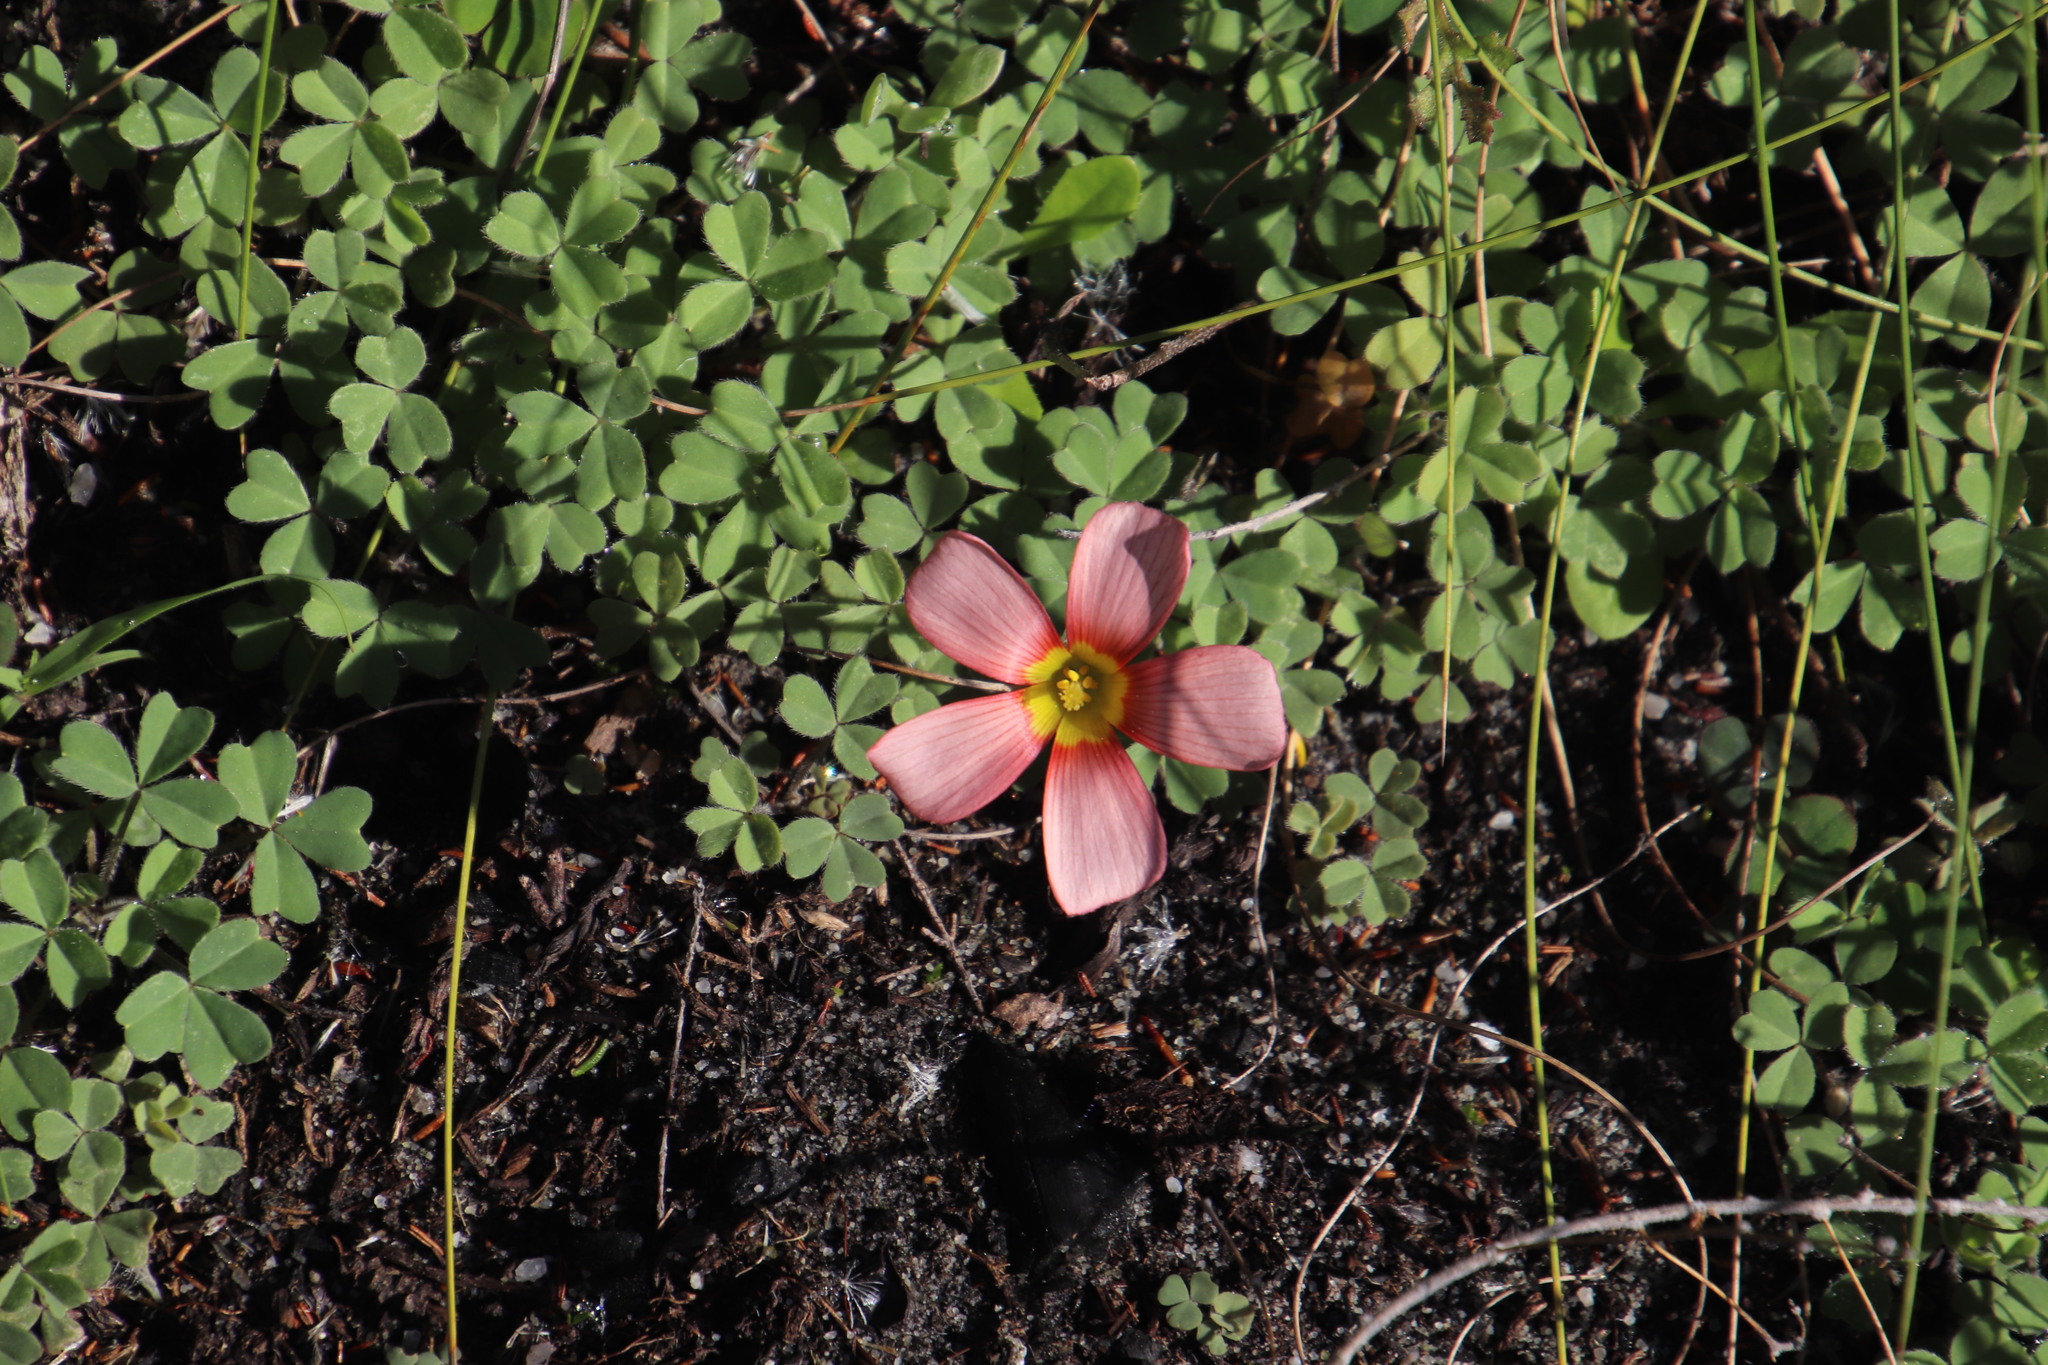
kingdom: Plantae
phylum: Tracheophyta
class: Magnoliopsida
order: Oxalidales
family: Oxalidaceae
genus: Oxalis
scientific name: Oxalis obtusa
